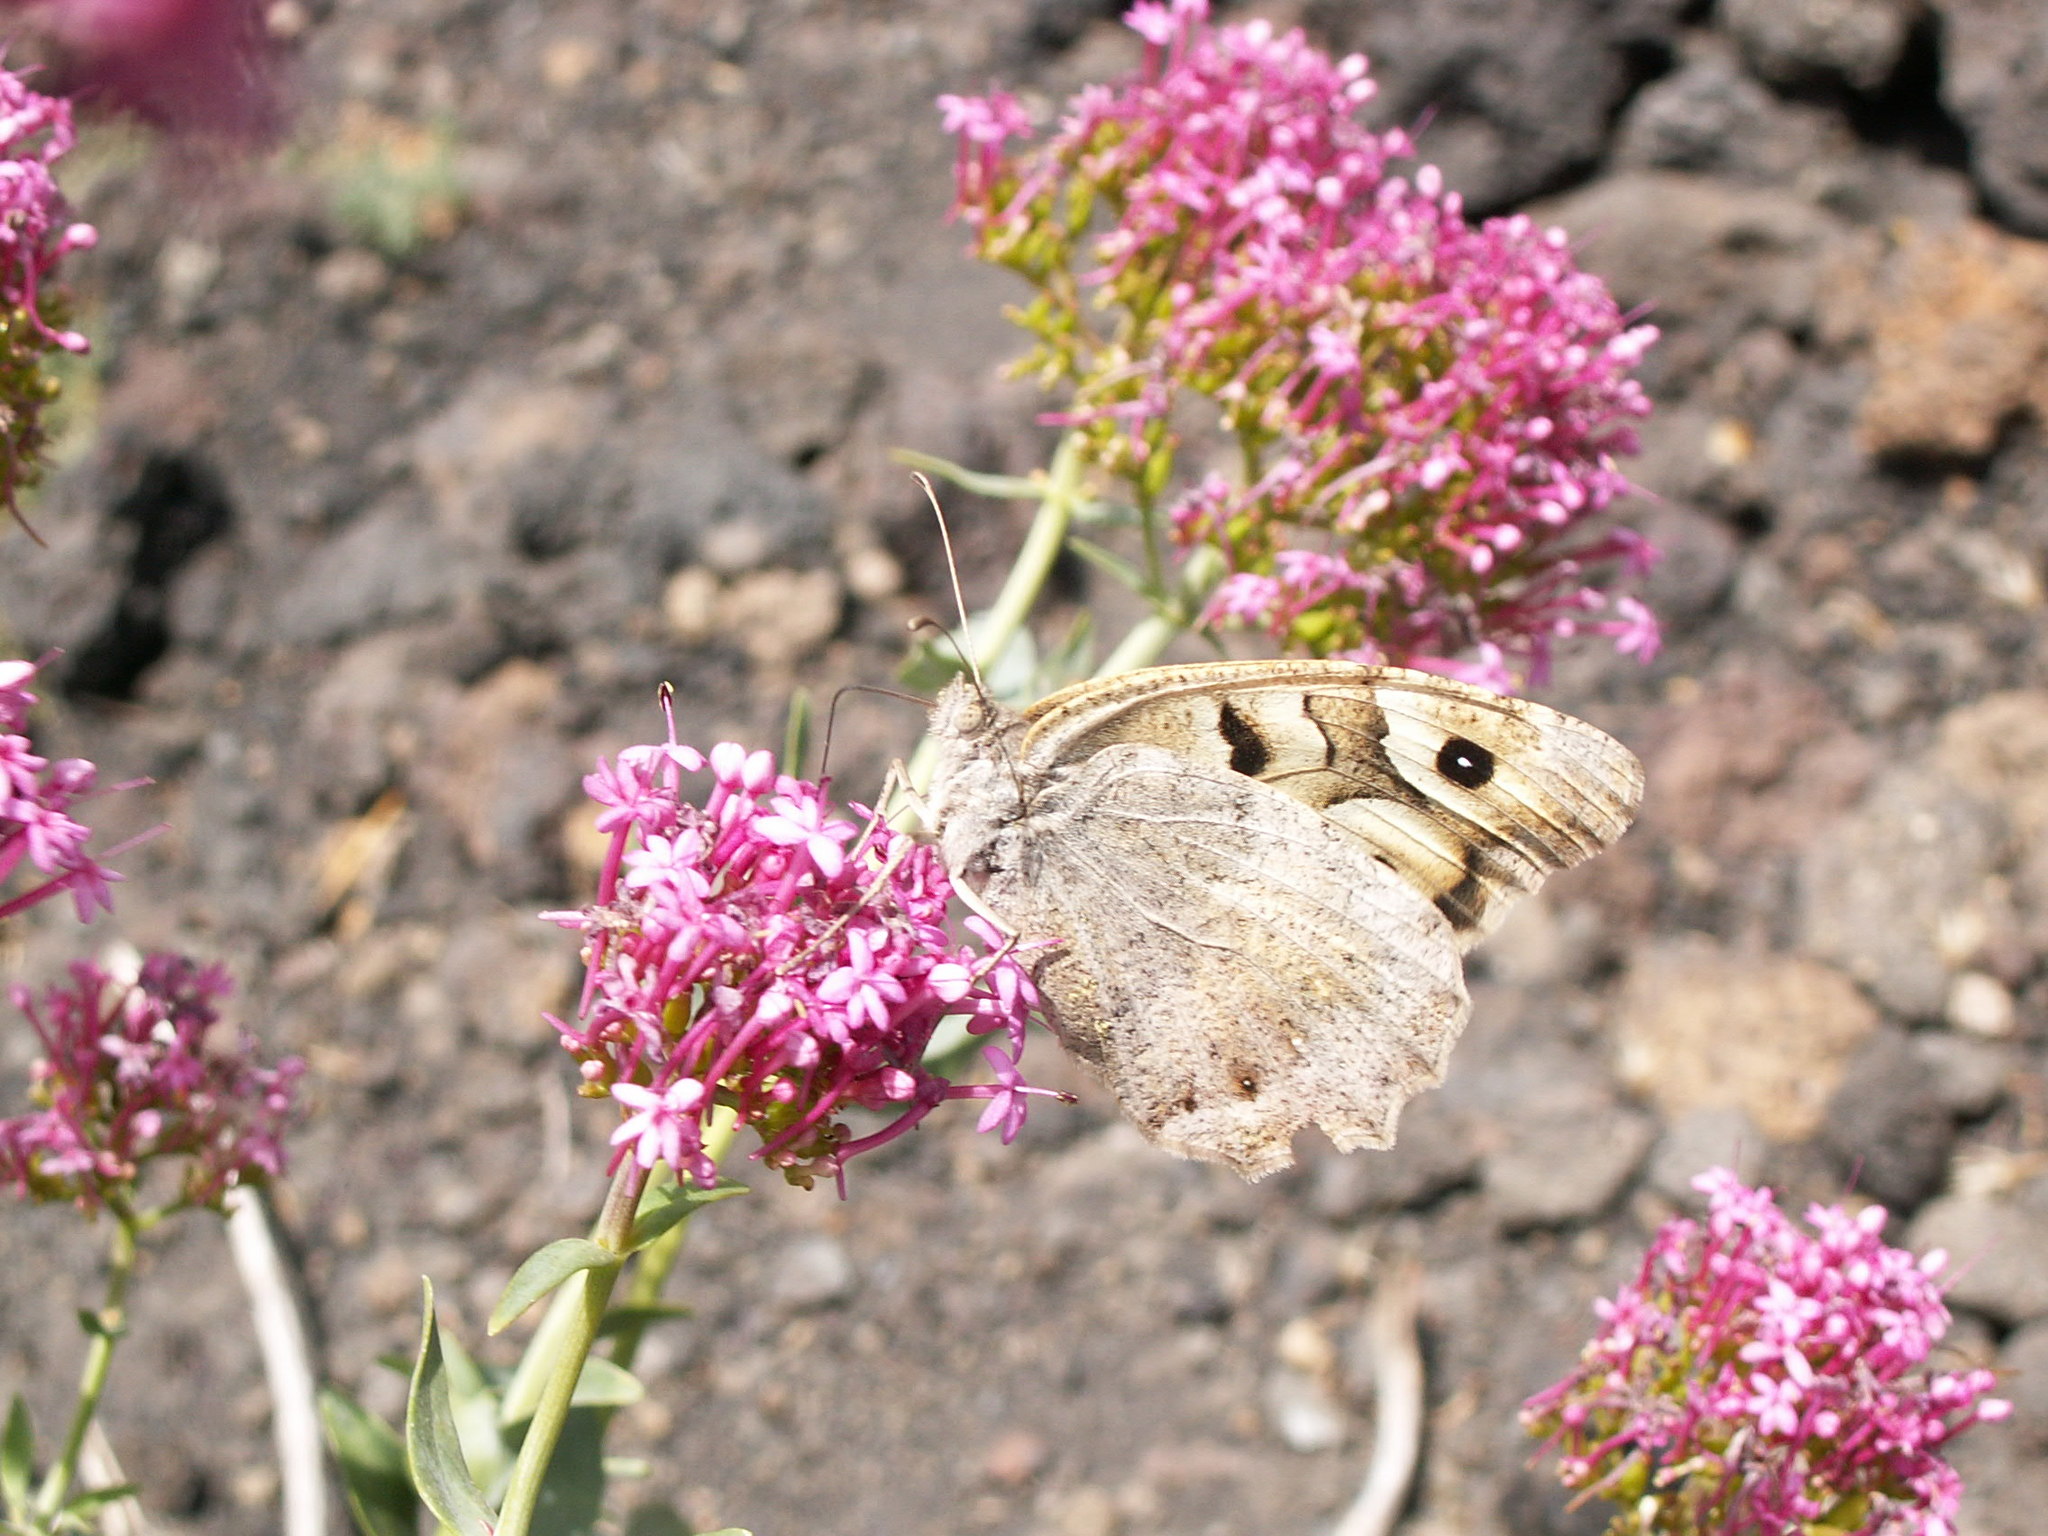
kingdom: Animalia
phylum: Arthropoda
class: Insecta
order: Lepidoptera
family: Nymphalidae
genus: Satyrus
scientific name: Satyrus briseis
